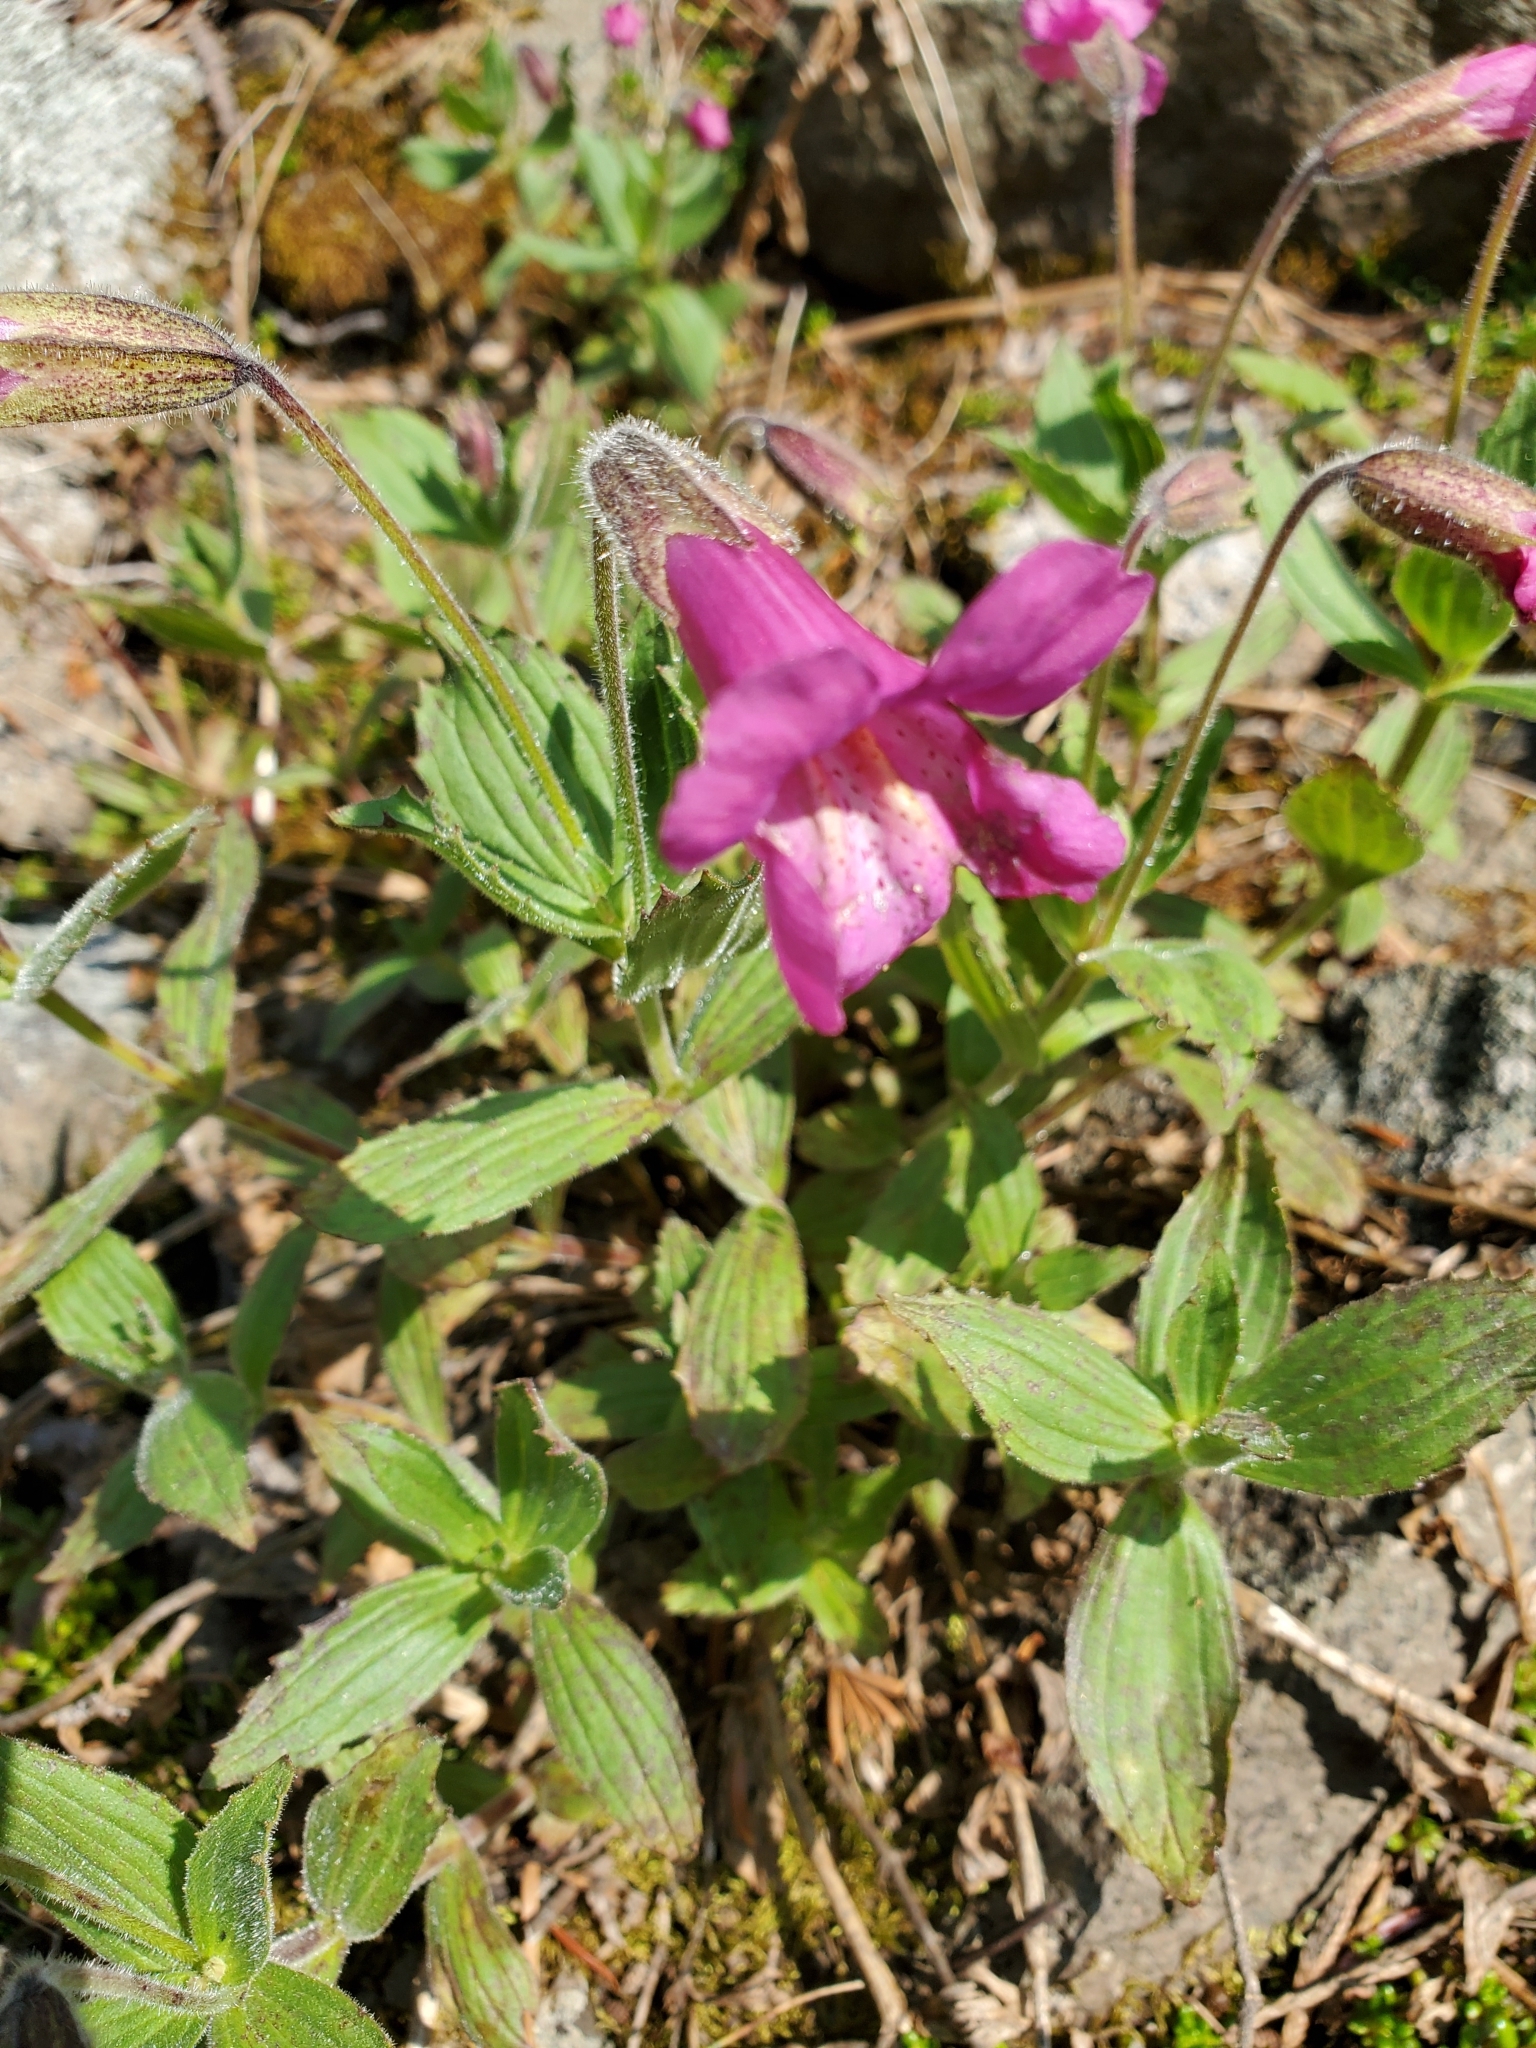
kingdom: Plantae
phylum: Tracheophyta
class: Magnoliopsida
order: Lamiales
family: Phrymaceae
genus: Erythranthe
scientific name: Erythranthe lewisii
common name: Lewis's monkey-flower
